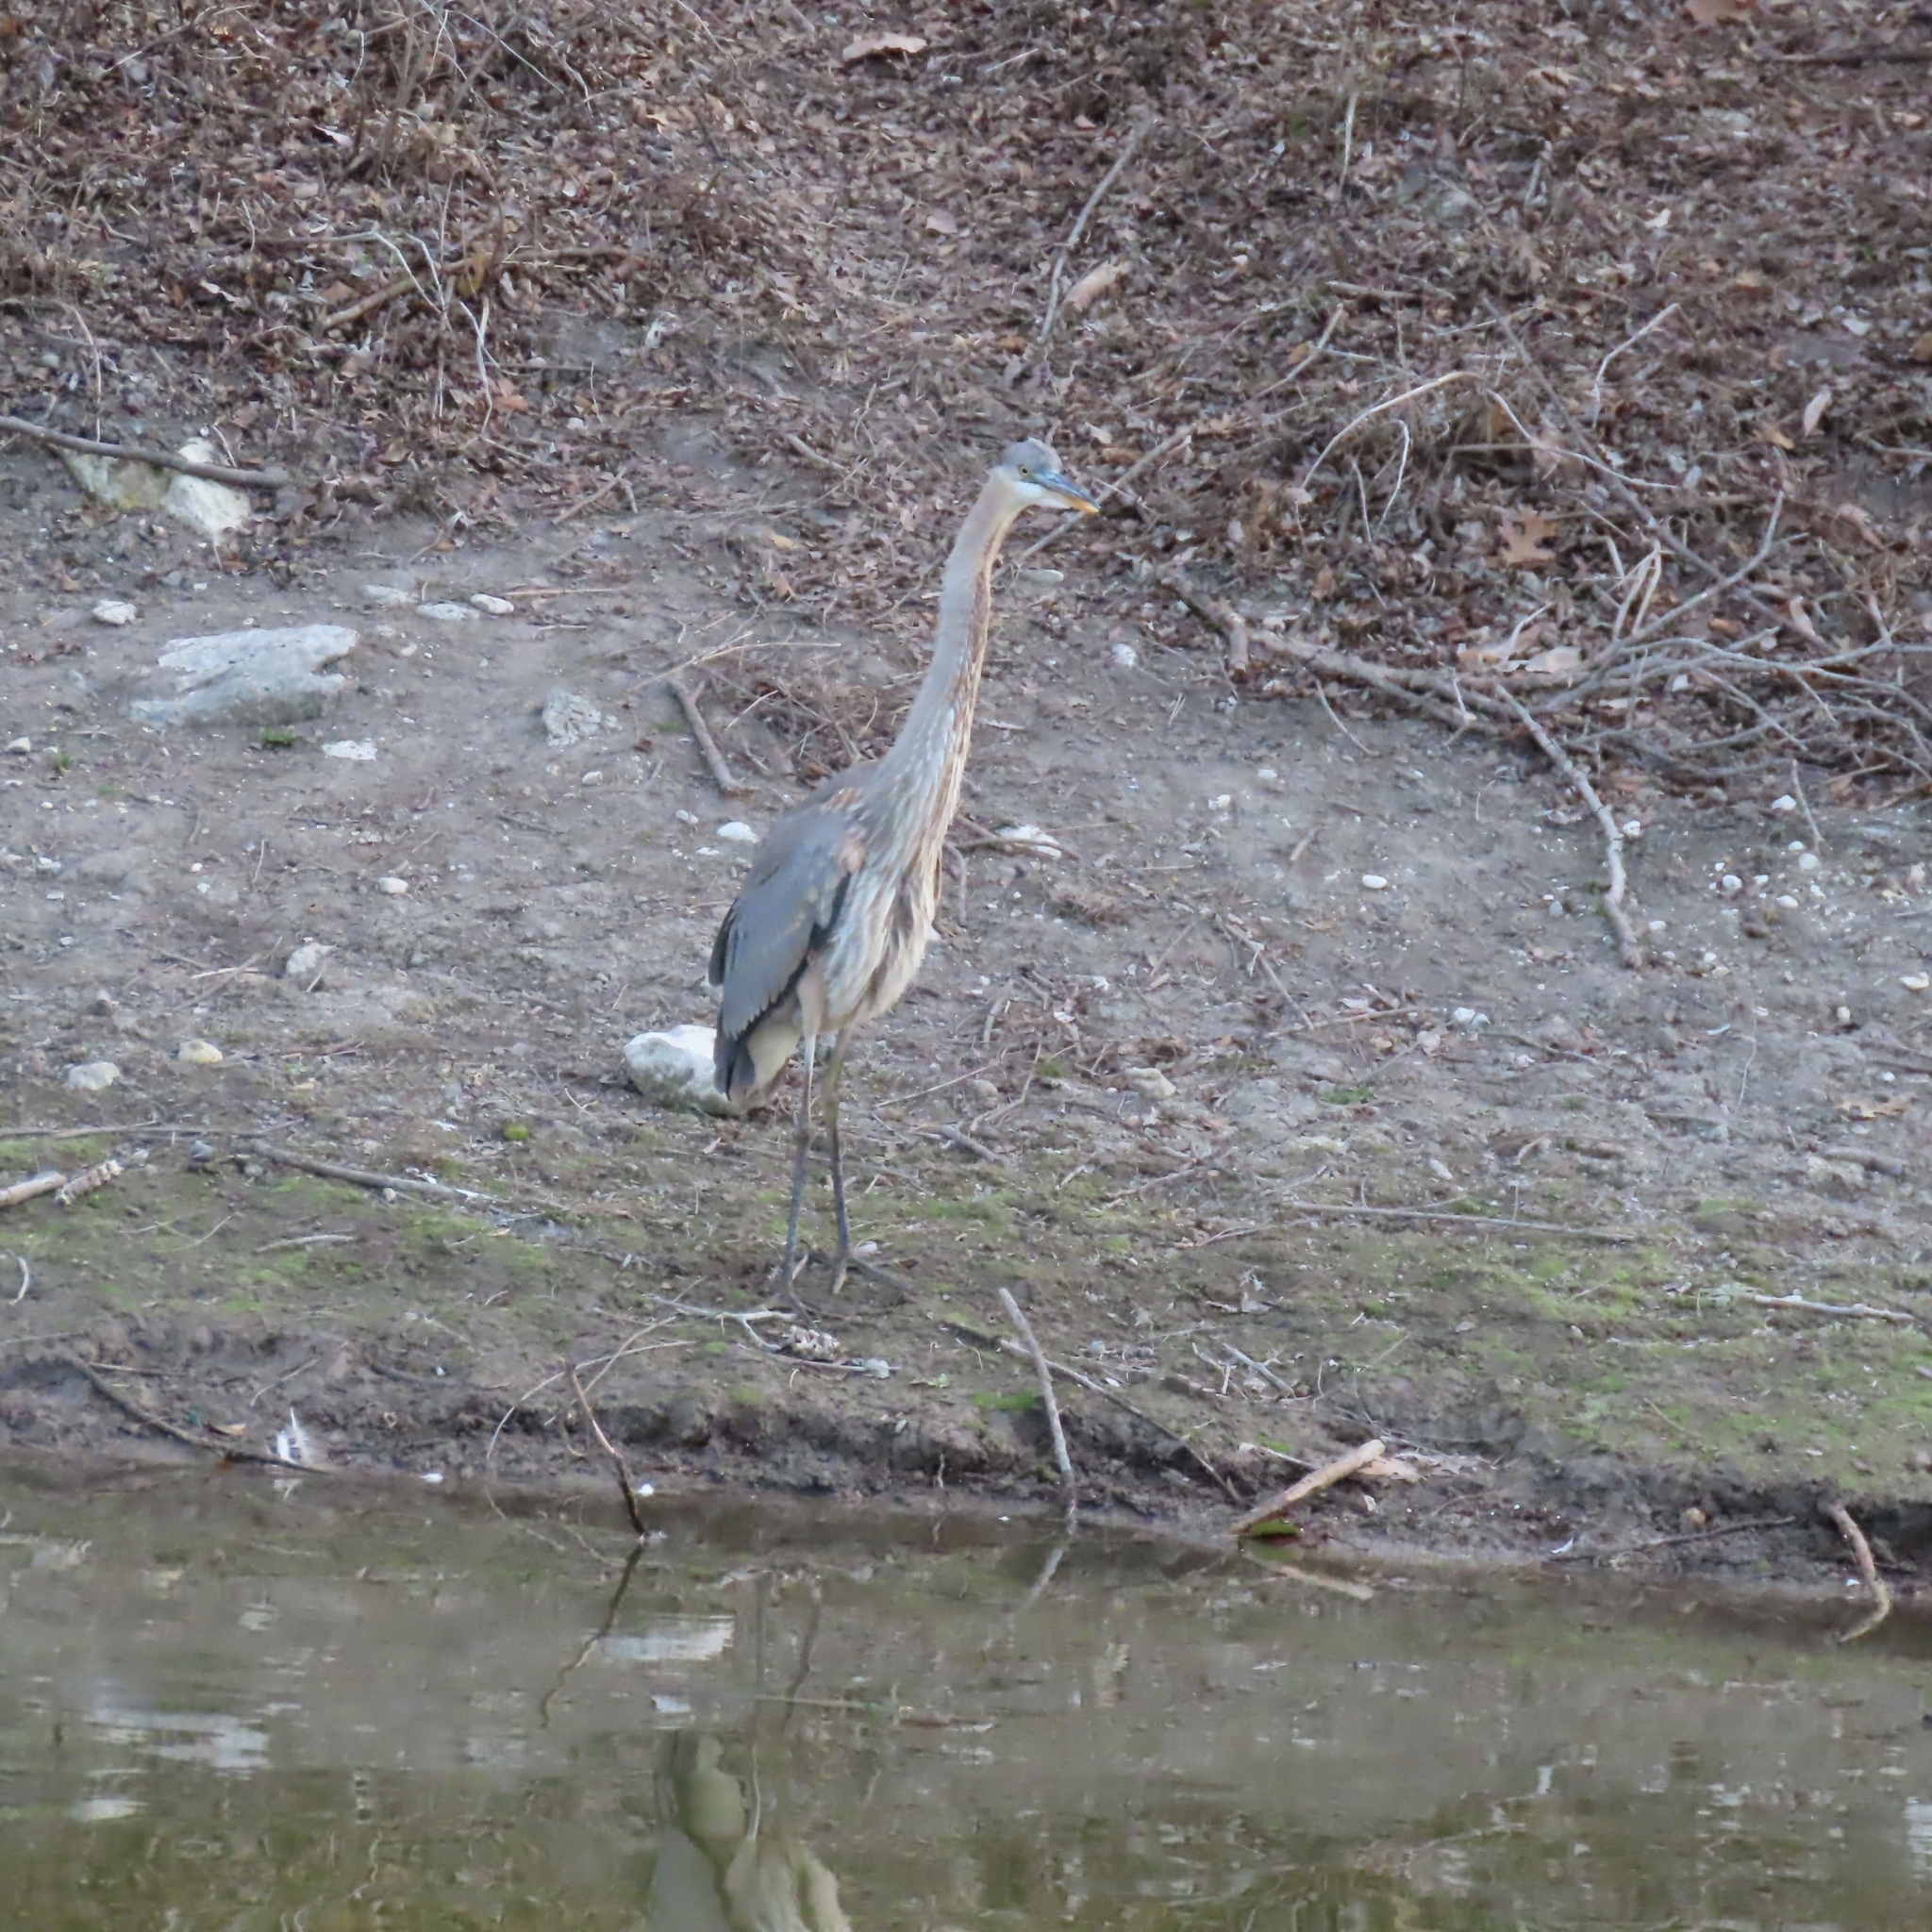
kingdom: Animalia
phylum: Chordata
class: Aves
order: Pelecaniformes
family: Ardeidae
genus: Ardea
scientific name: Ardea herodias
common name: Great blue heron
